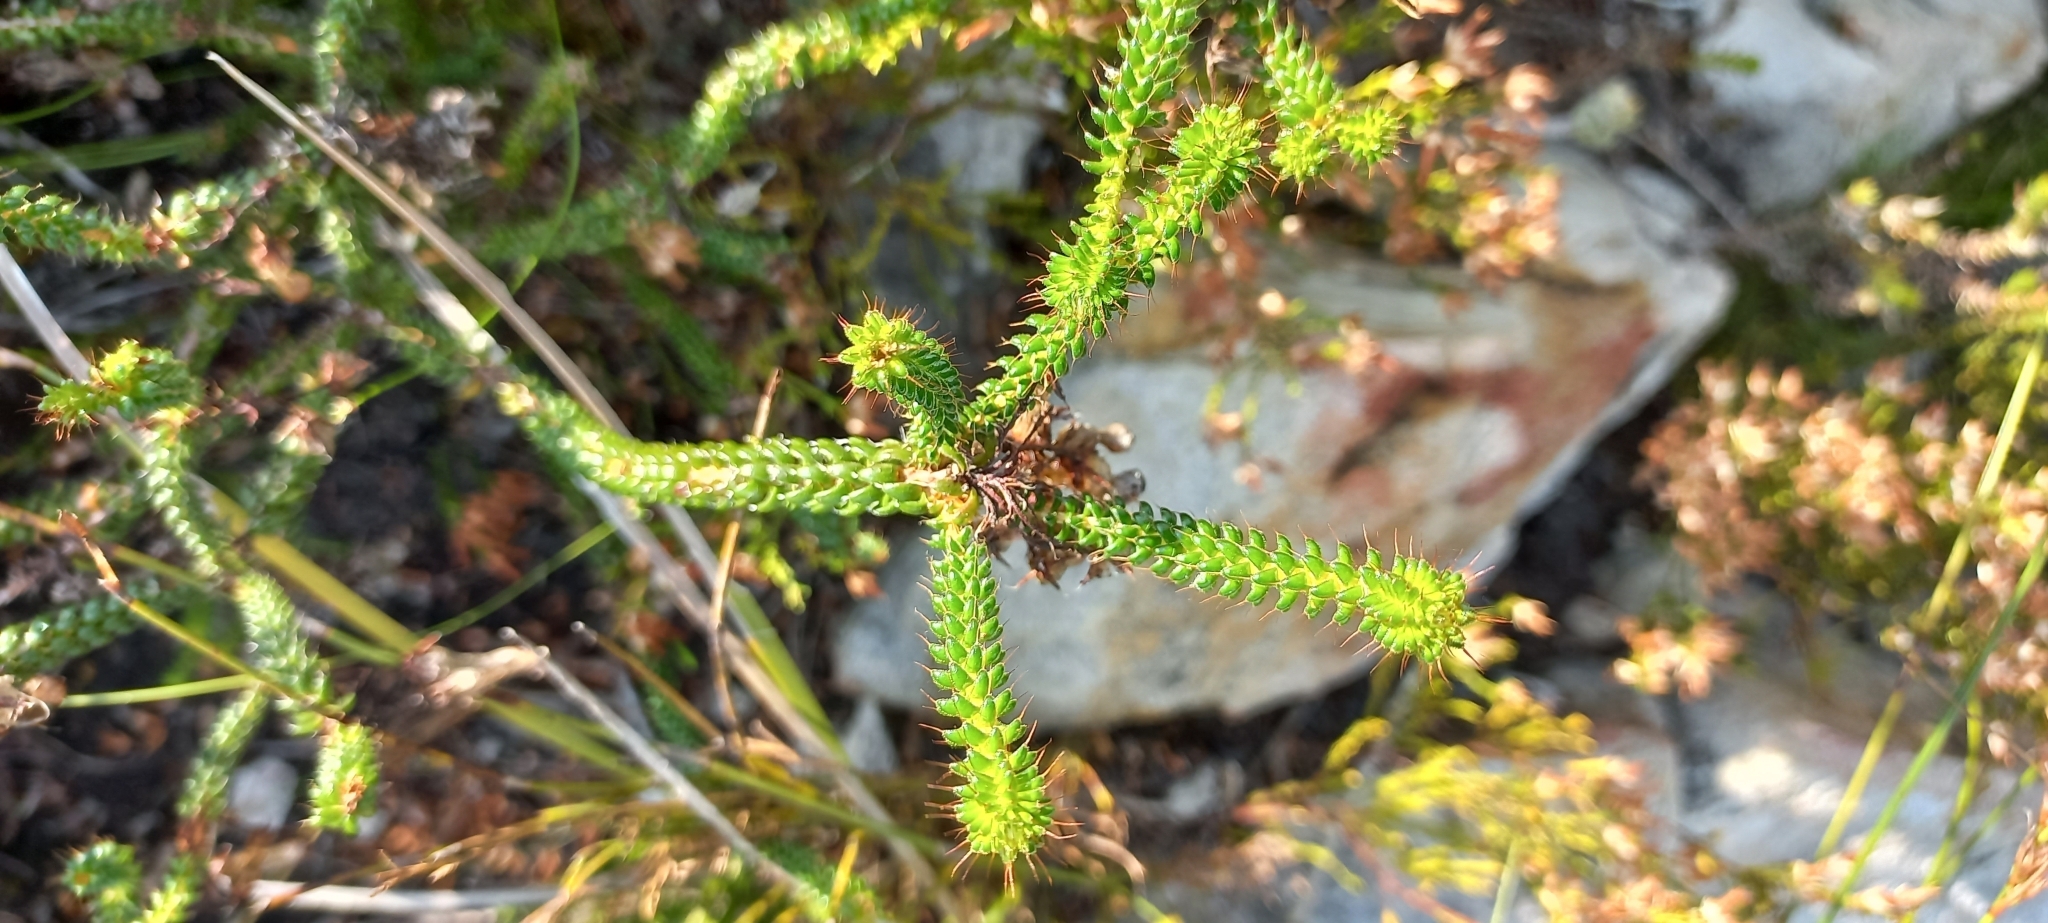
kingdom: Plantae
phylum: Tracheophyta
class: Magnoliopsida
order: Ericales
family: Ericaceae
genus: Erica
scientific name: Erica retorta
